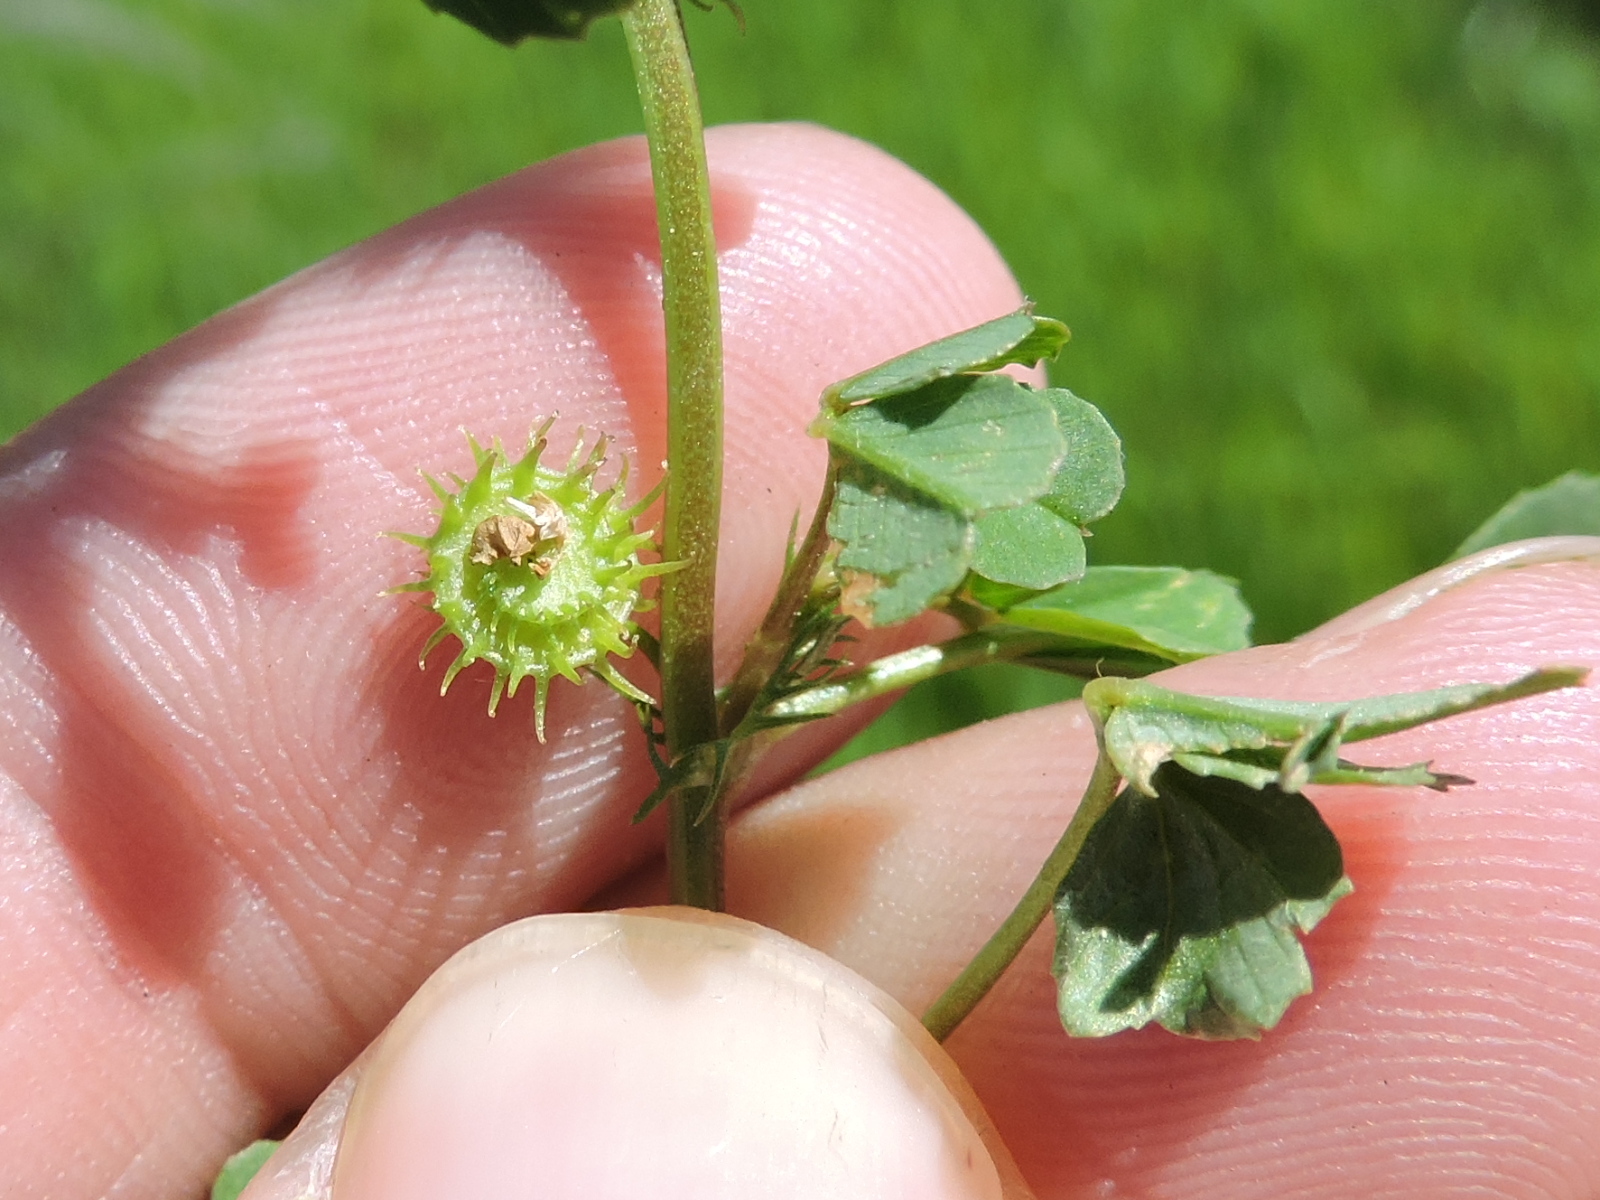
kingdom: Plantae
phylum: Tracheophyta
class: Magnoliopsida
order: Fabales
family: Fabaceae
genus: Medicago
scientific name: Medicago polymorpha
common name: Burclover
